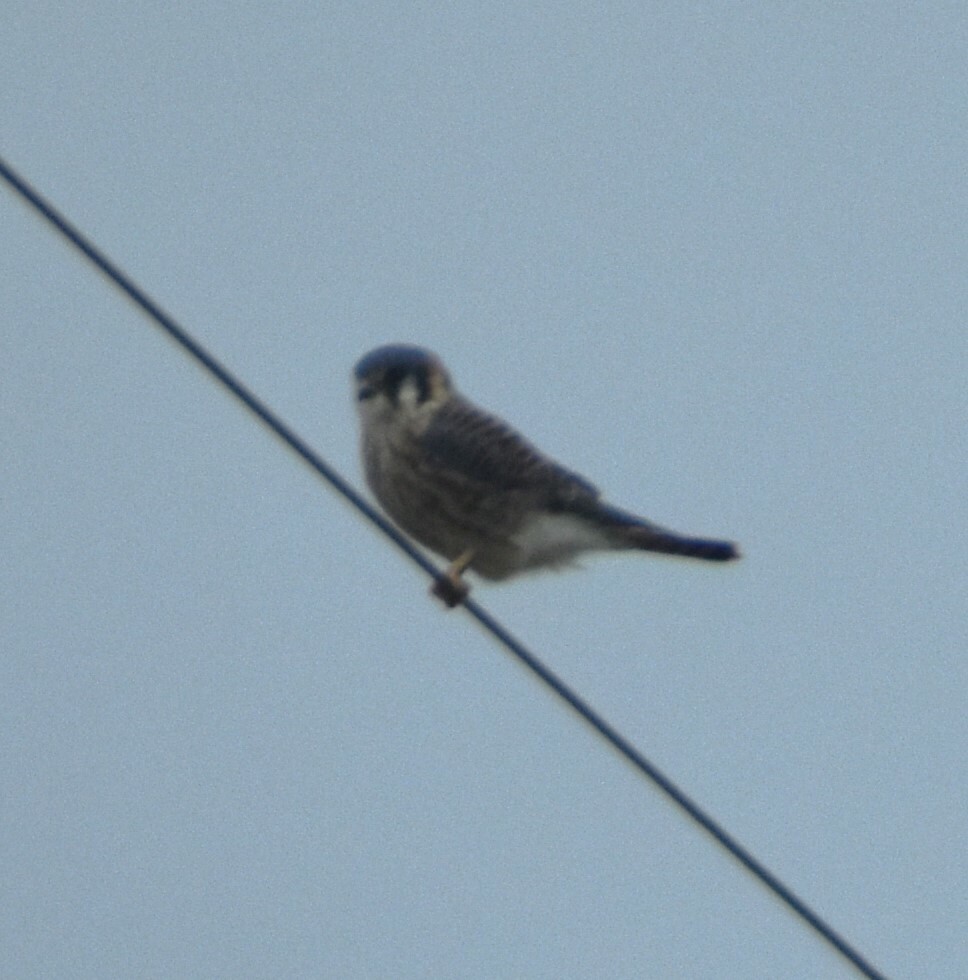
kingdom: Animalia
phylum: Chordata
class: Aves
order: Falconiformes
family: Falconidae
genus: Falco
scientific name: Falco sparverius
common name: American kestrel
